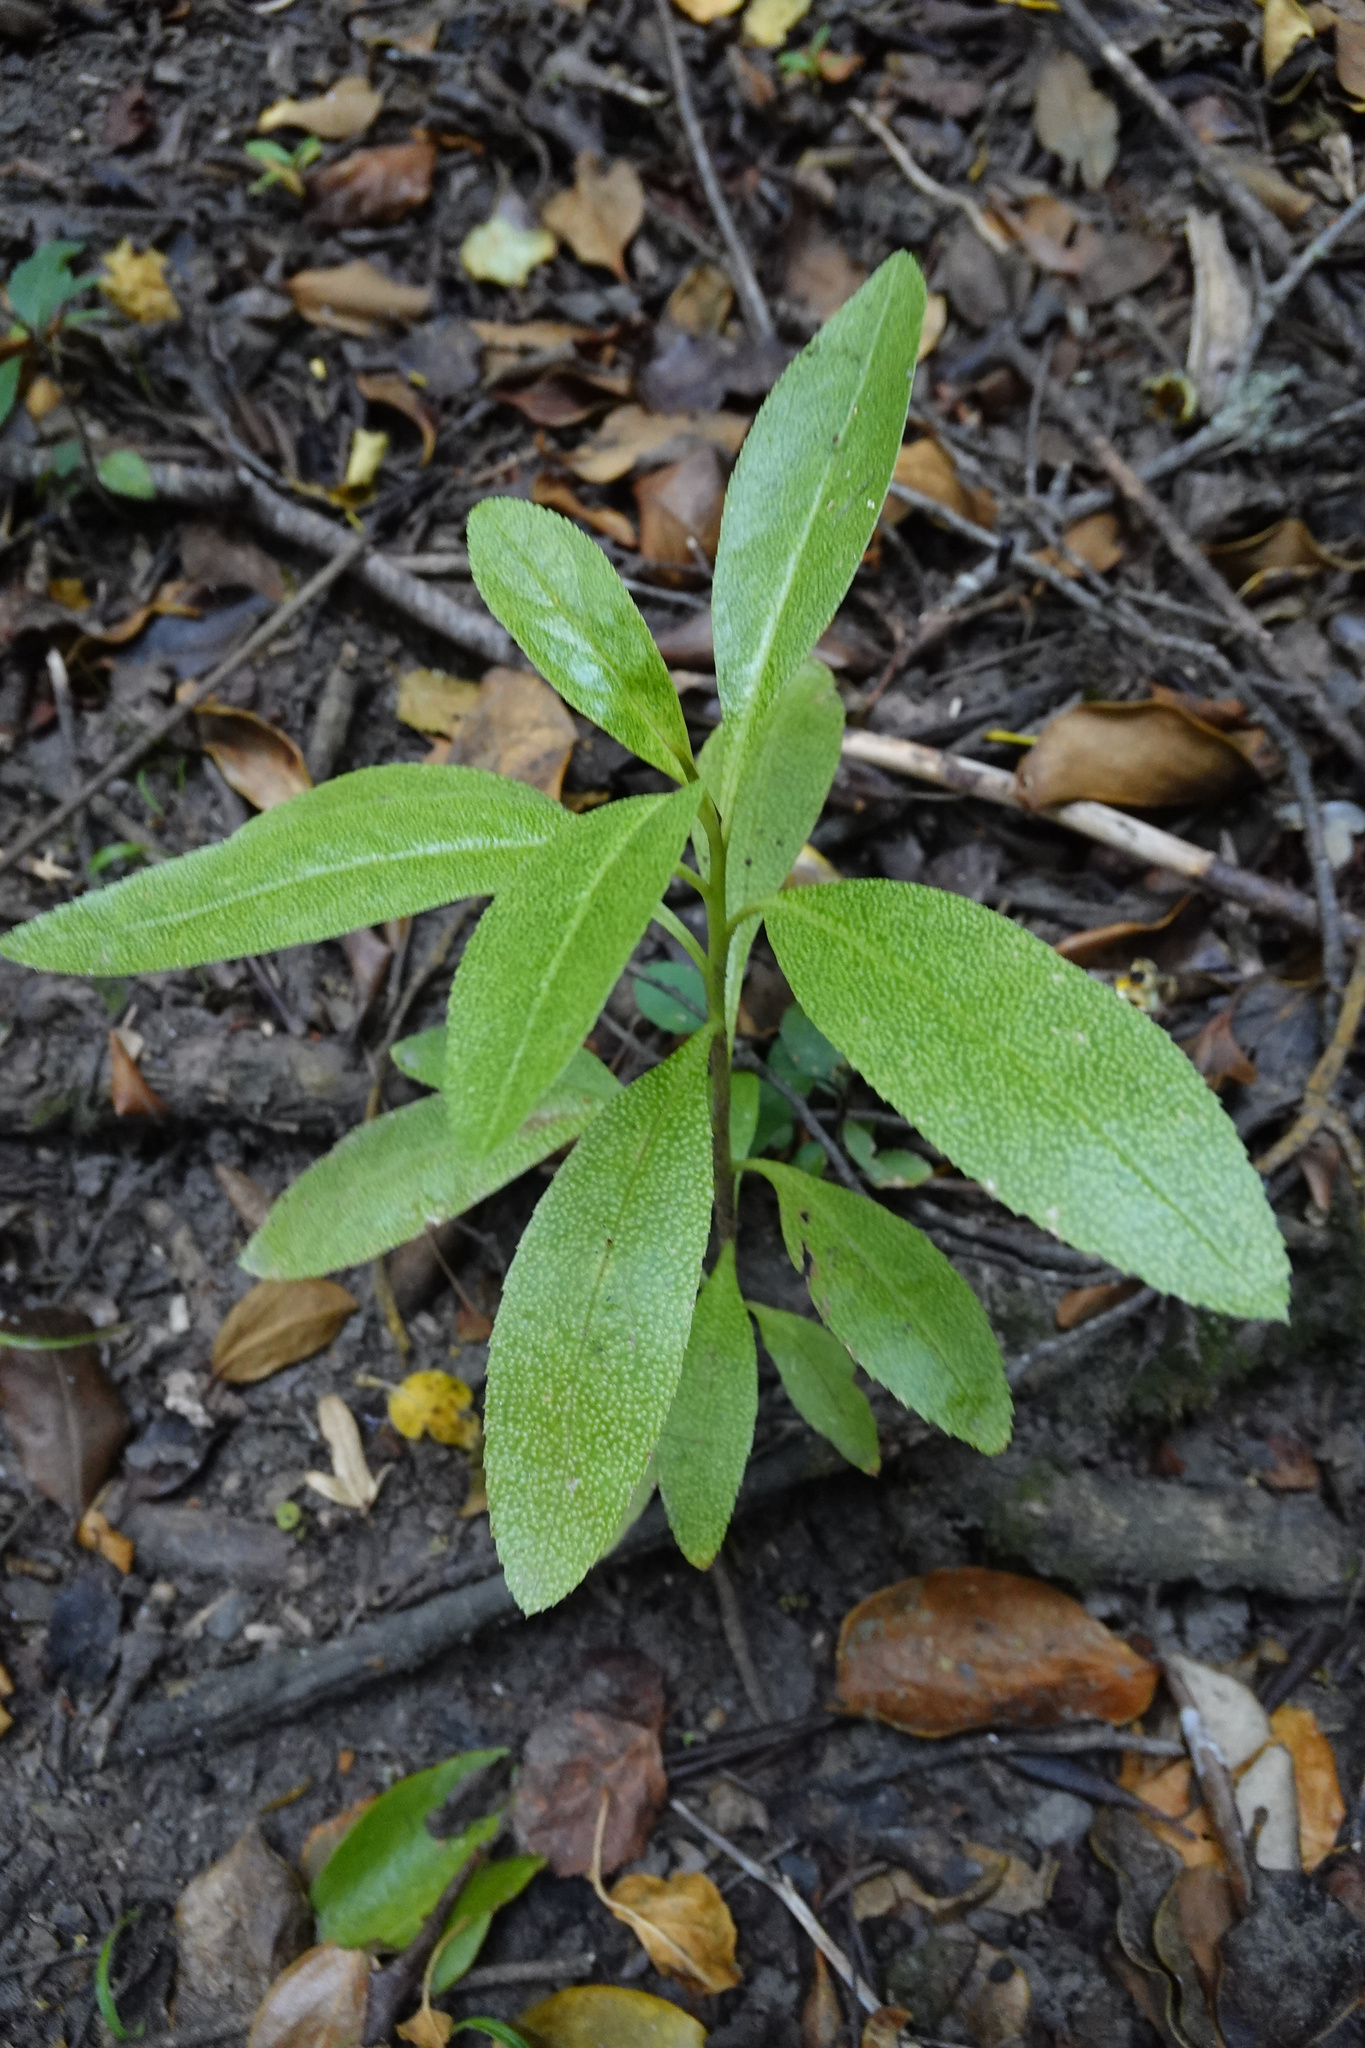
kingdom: Plantae
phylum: Tracheophyta
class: Magnoliopsida
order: Lamiales
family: Scrophulariaceae
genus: Myoporum
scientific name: Myoporum laetum
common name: Ngaio tree
